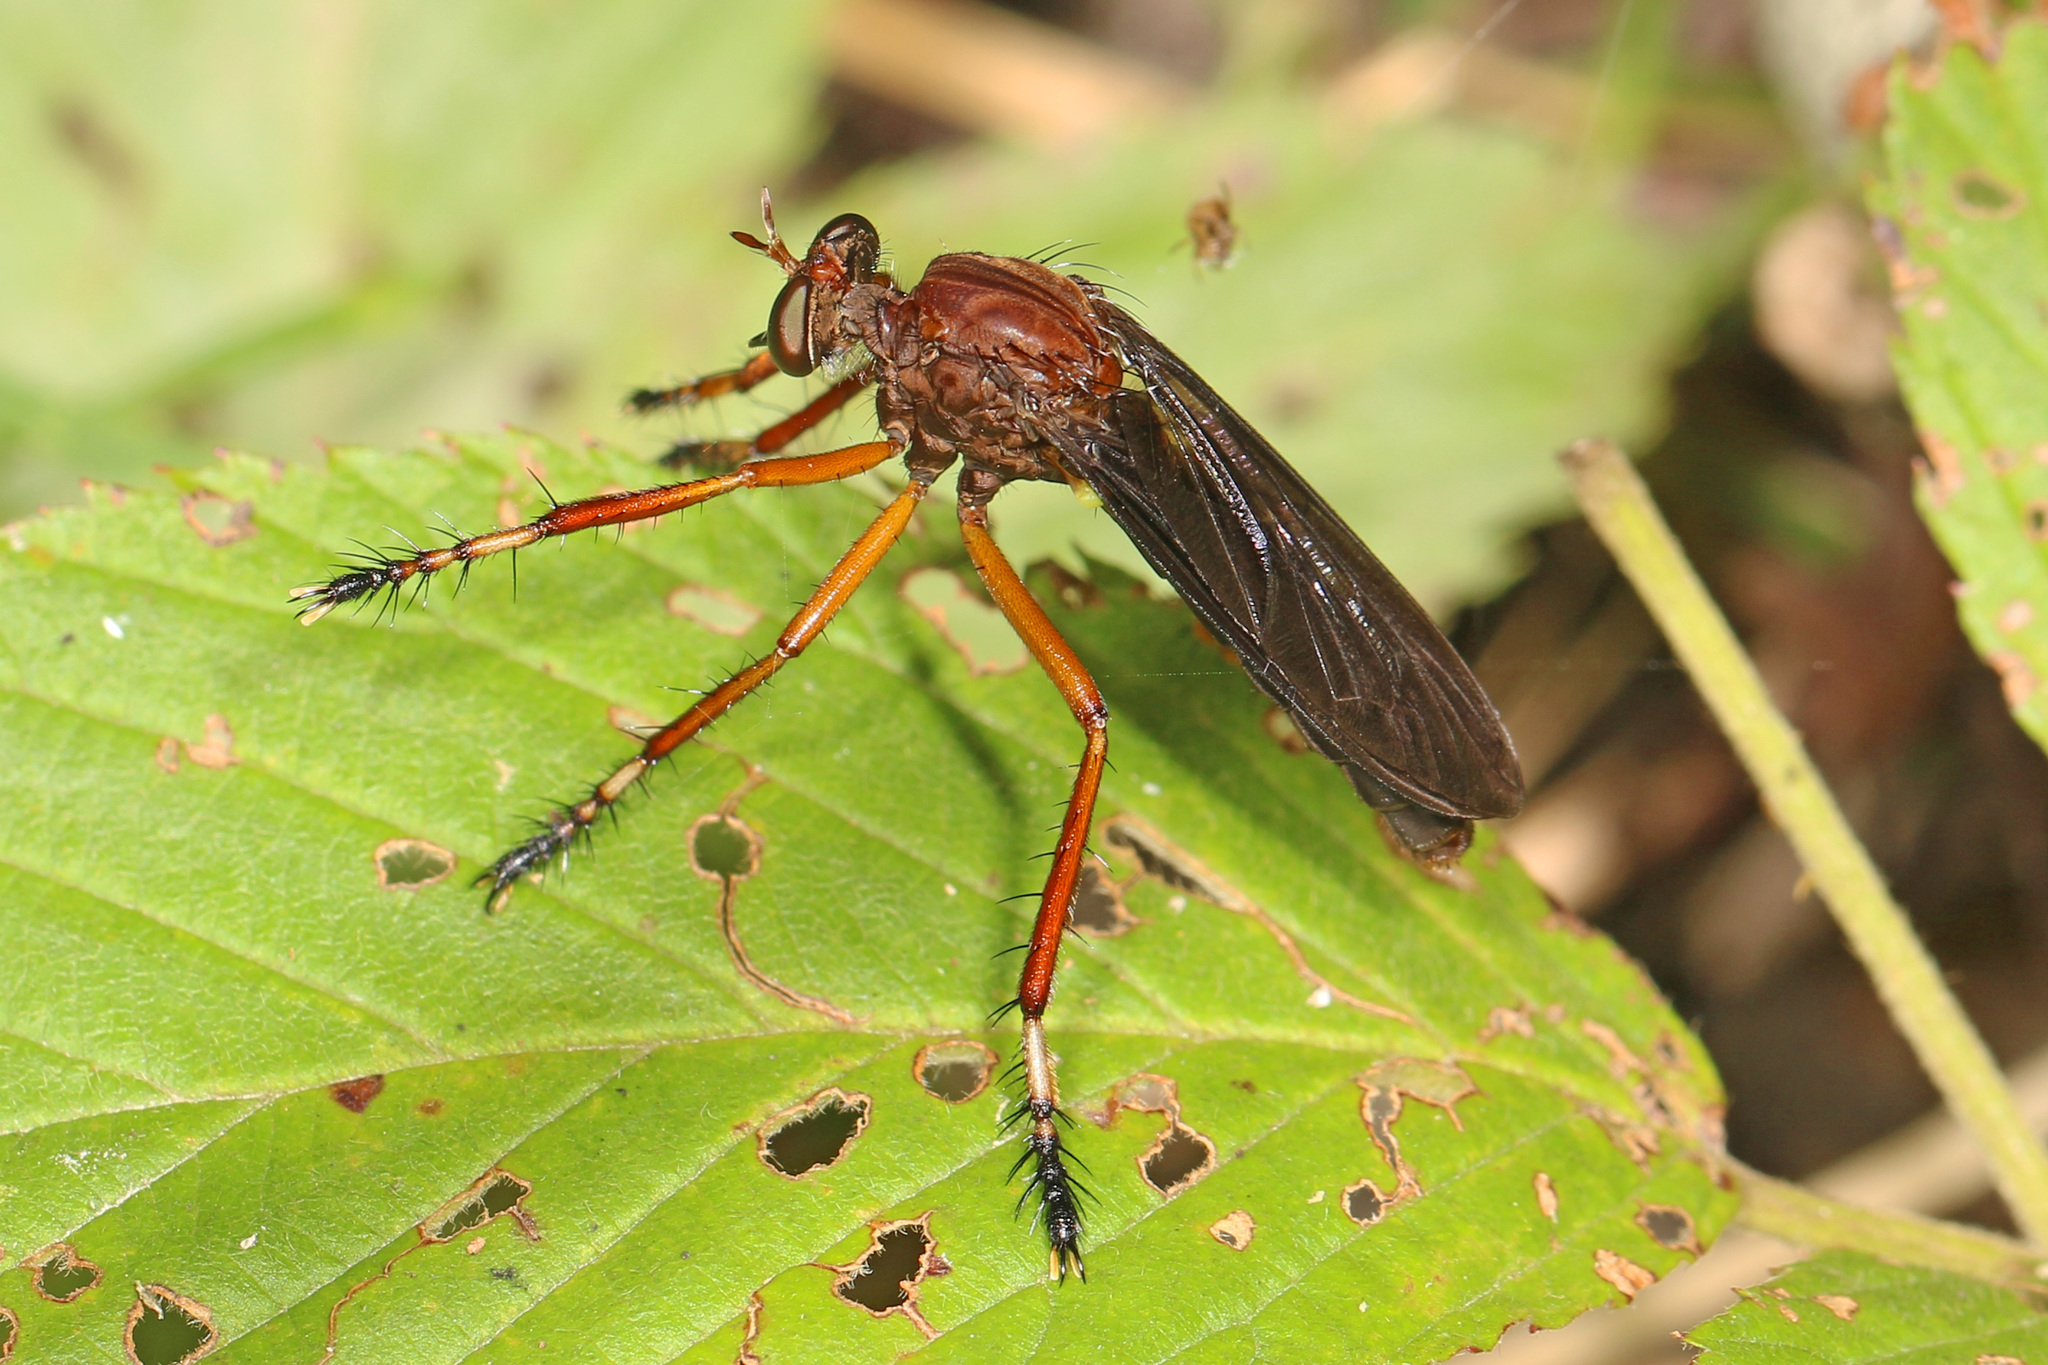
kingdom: Animalia
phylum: Arthropoda
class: Insecta
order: Diptera
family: Asilidae
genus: Diogmites
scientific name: Diogmites platypterus
